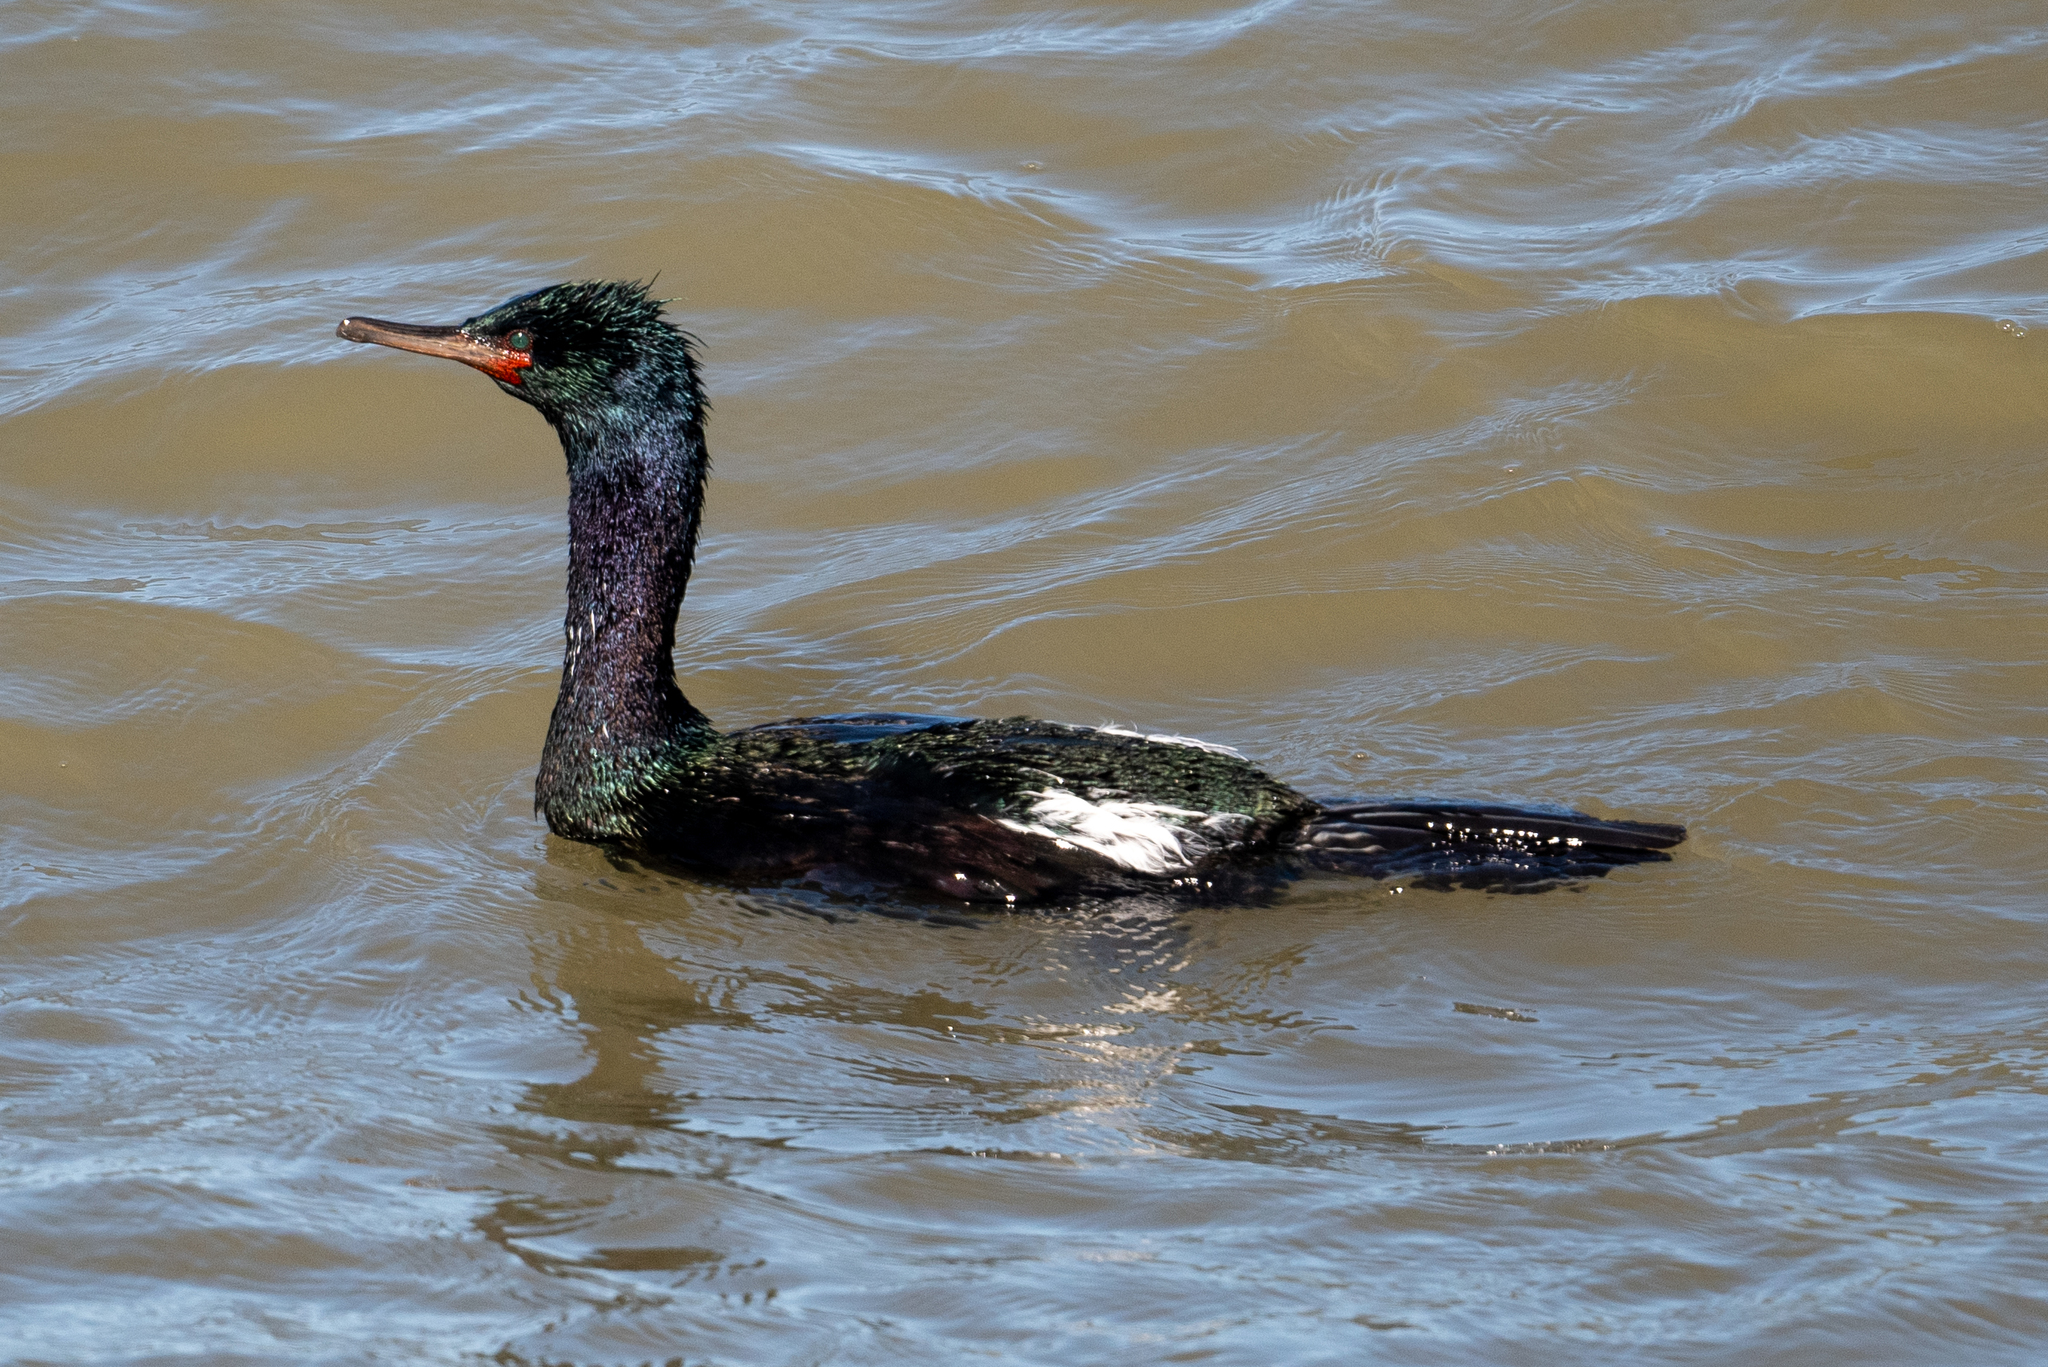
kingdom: Animalia
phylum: Chordata
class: Aves
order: Suliformes
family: Phalacrocoracidae
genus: Phalacrocorax
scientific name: Phalacrocorax pelagicus
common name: Pelagic cormorant
